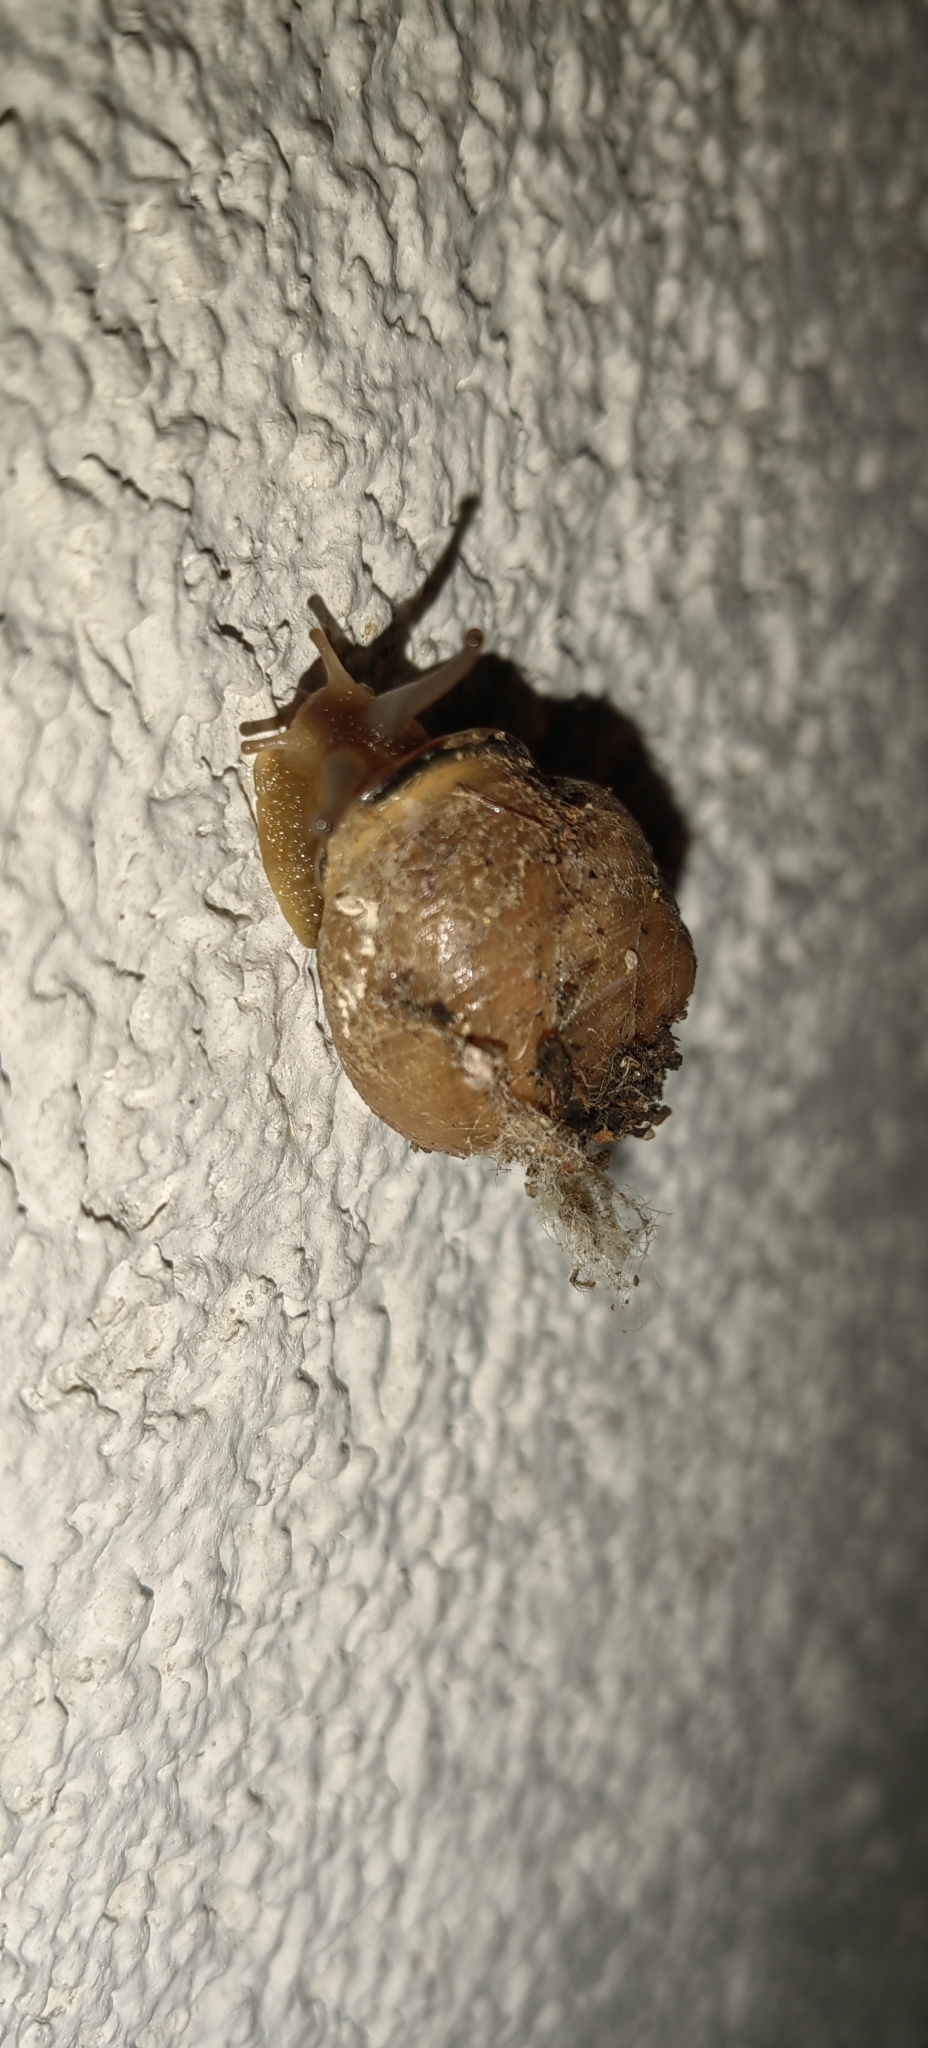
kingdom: Animalia
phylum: Mollusca
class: Gastropoda
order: Stylommatophora
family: Helicidae
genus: Cepaea
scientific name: Cepaea nemoralis
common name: Grovesnail
